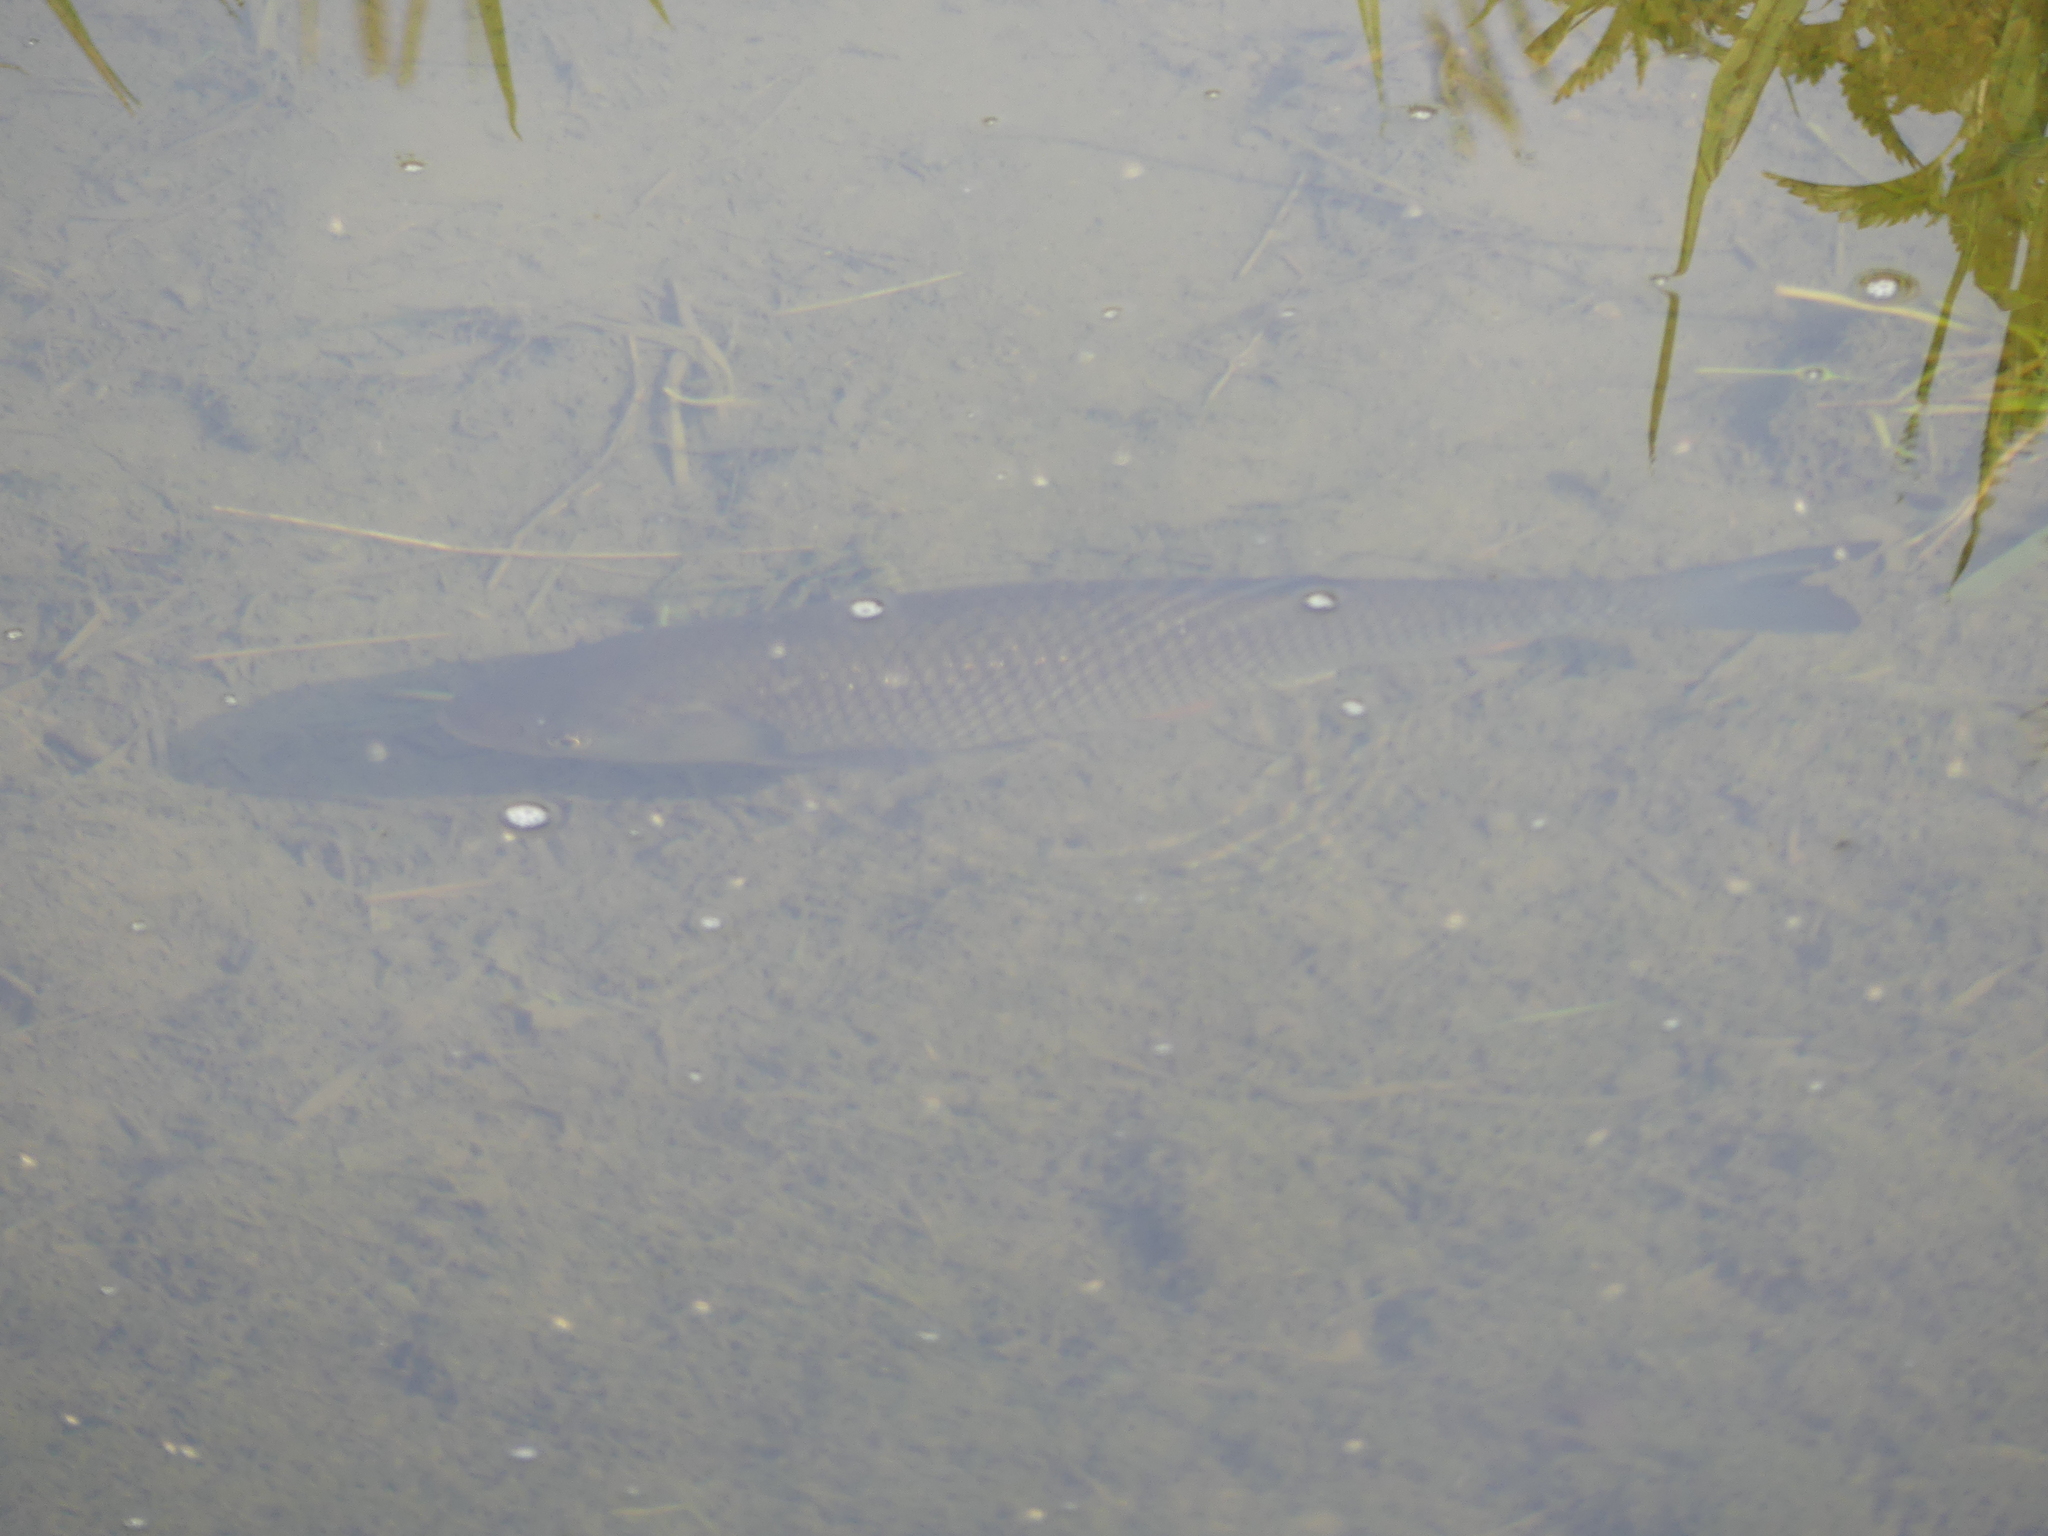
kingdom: Animalia
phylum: Chordata
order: Cypriniformes
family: Cyprinidae
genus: Squalius
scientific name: Squalius cephalus
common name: Chub
